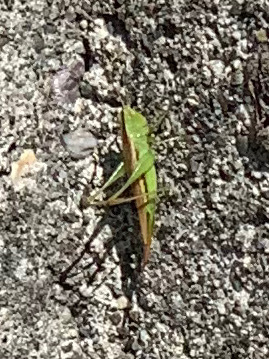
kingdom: Animalia
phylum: Arthropoda
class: Insecta
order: Orthoptera
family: Tettigoniidae
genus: Conocephalus
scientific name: Conocephalus fasciatus
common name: Slender meadow katydid
